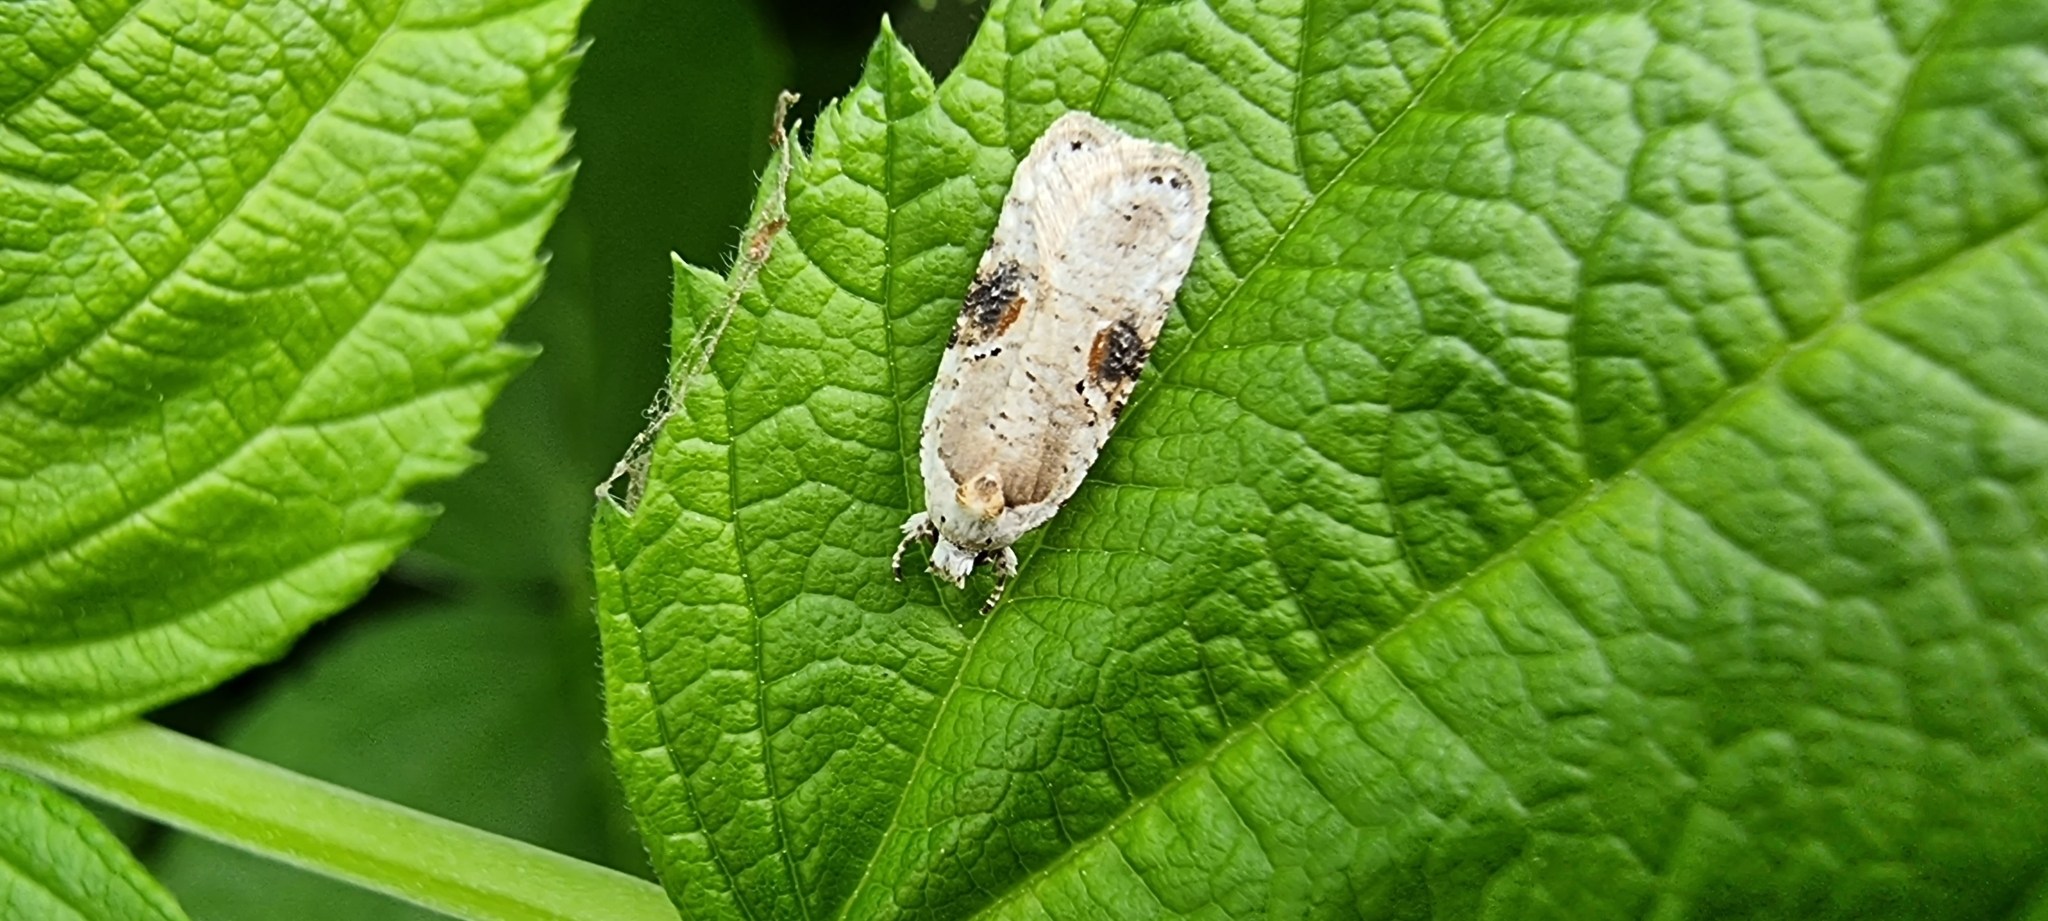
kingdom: Animalia
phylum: Arthropoda
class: Insecta
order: Lepidoptera
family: Depressariidae
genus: Agonopterix
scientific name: Agonopterix alstroemeriana
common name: Moth
